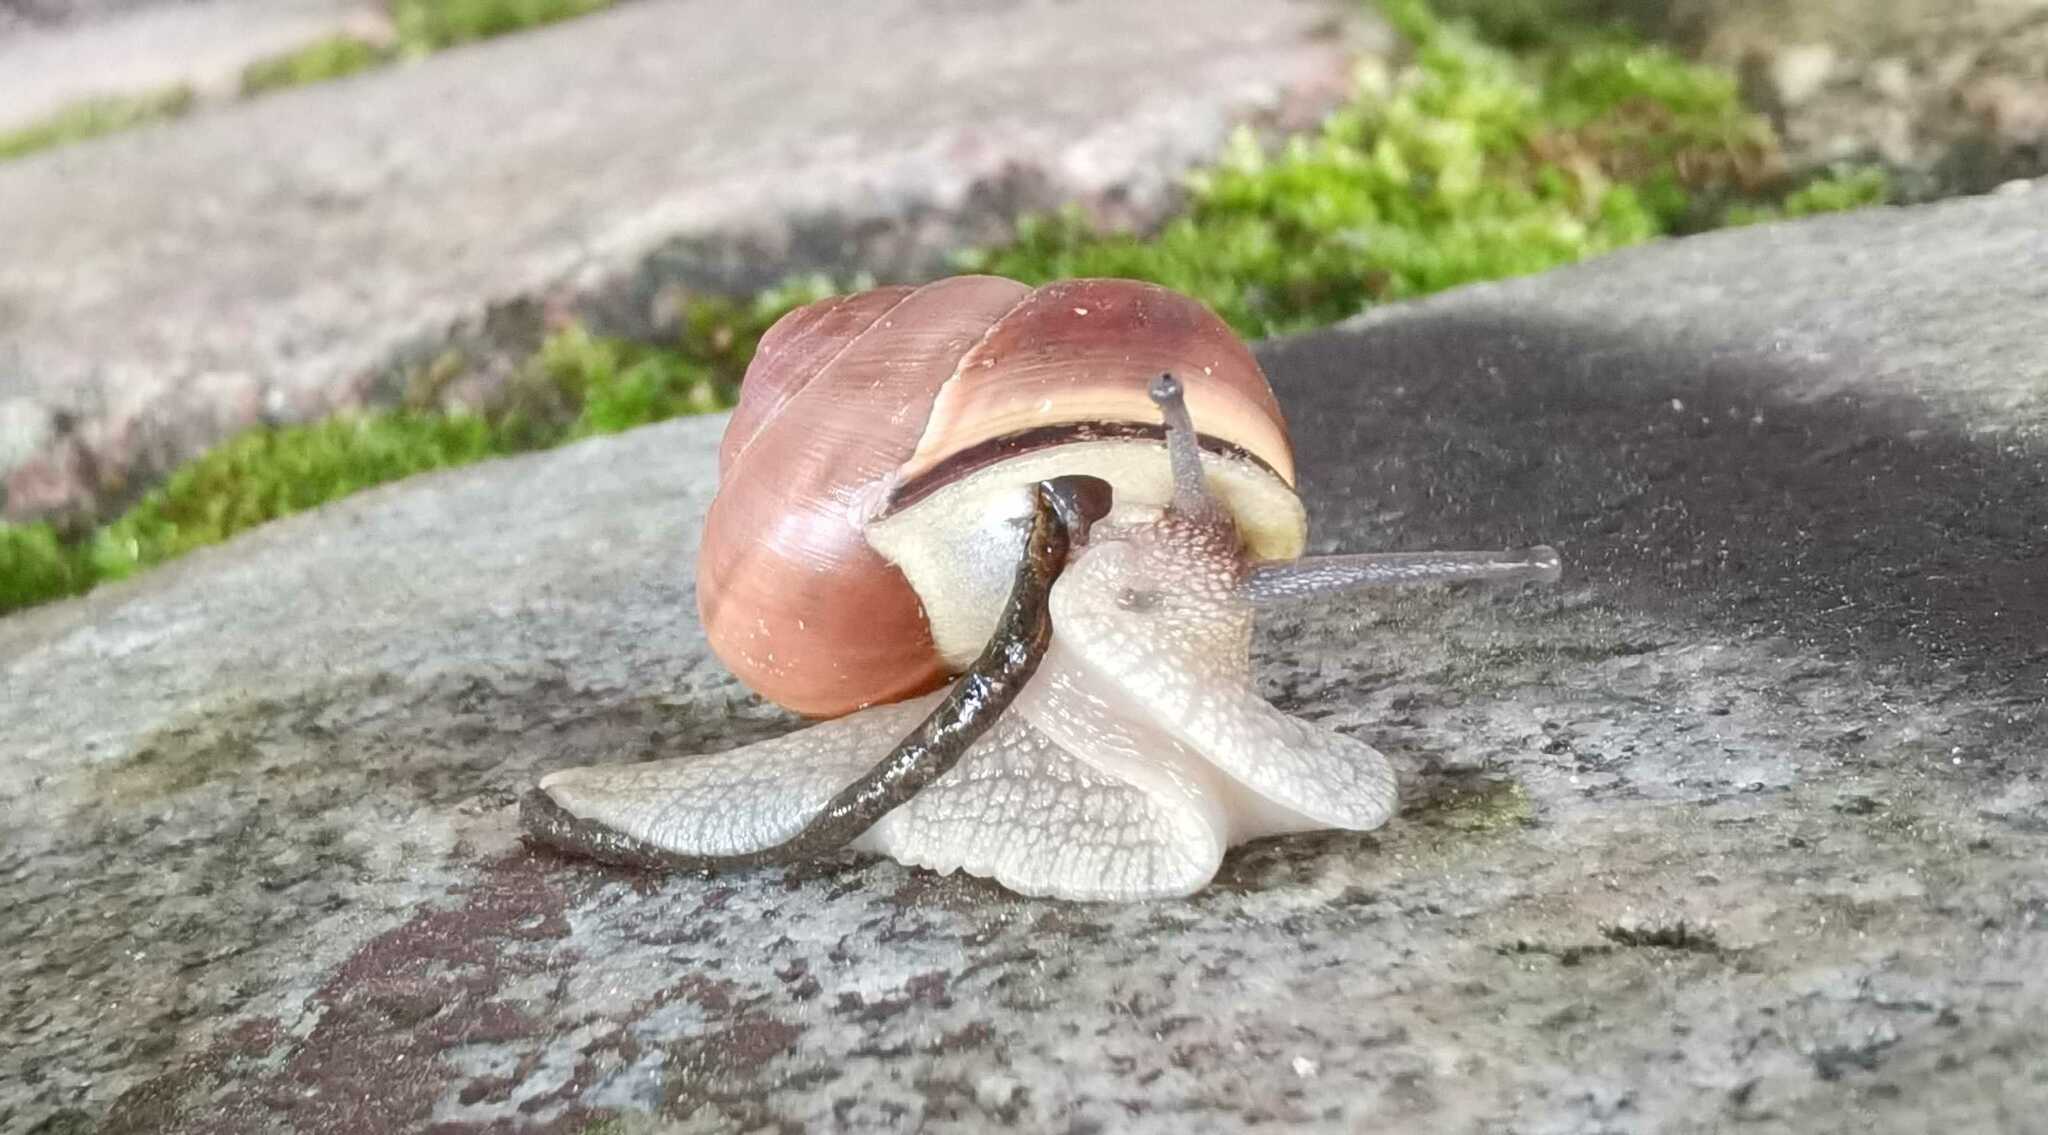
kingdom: Animalia
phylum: Mollusca
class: Gastropoda
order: Stylommatophora
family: Helicidae
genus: Cepaea
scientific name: Cepaea nemoralis
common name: Grovesnail
